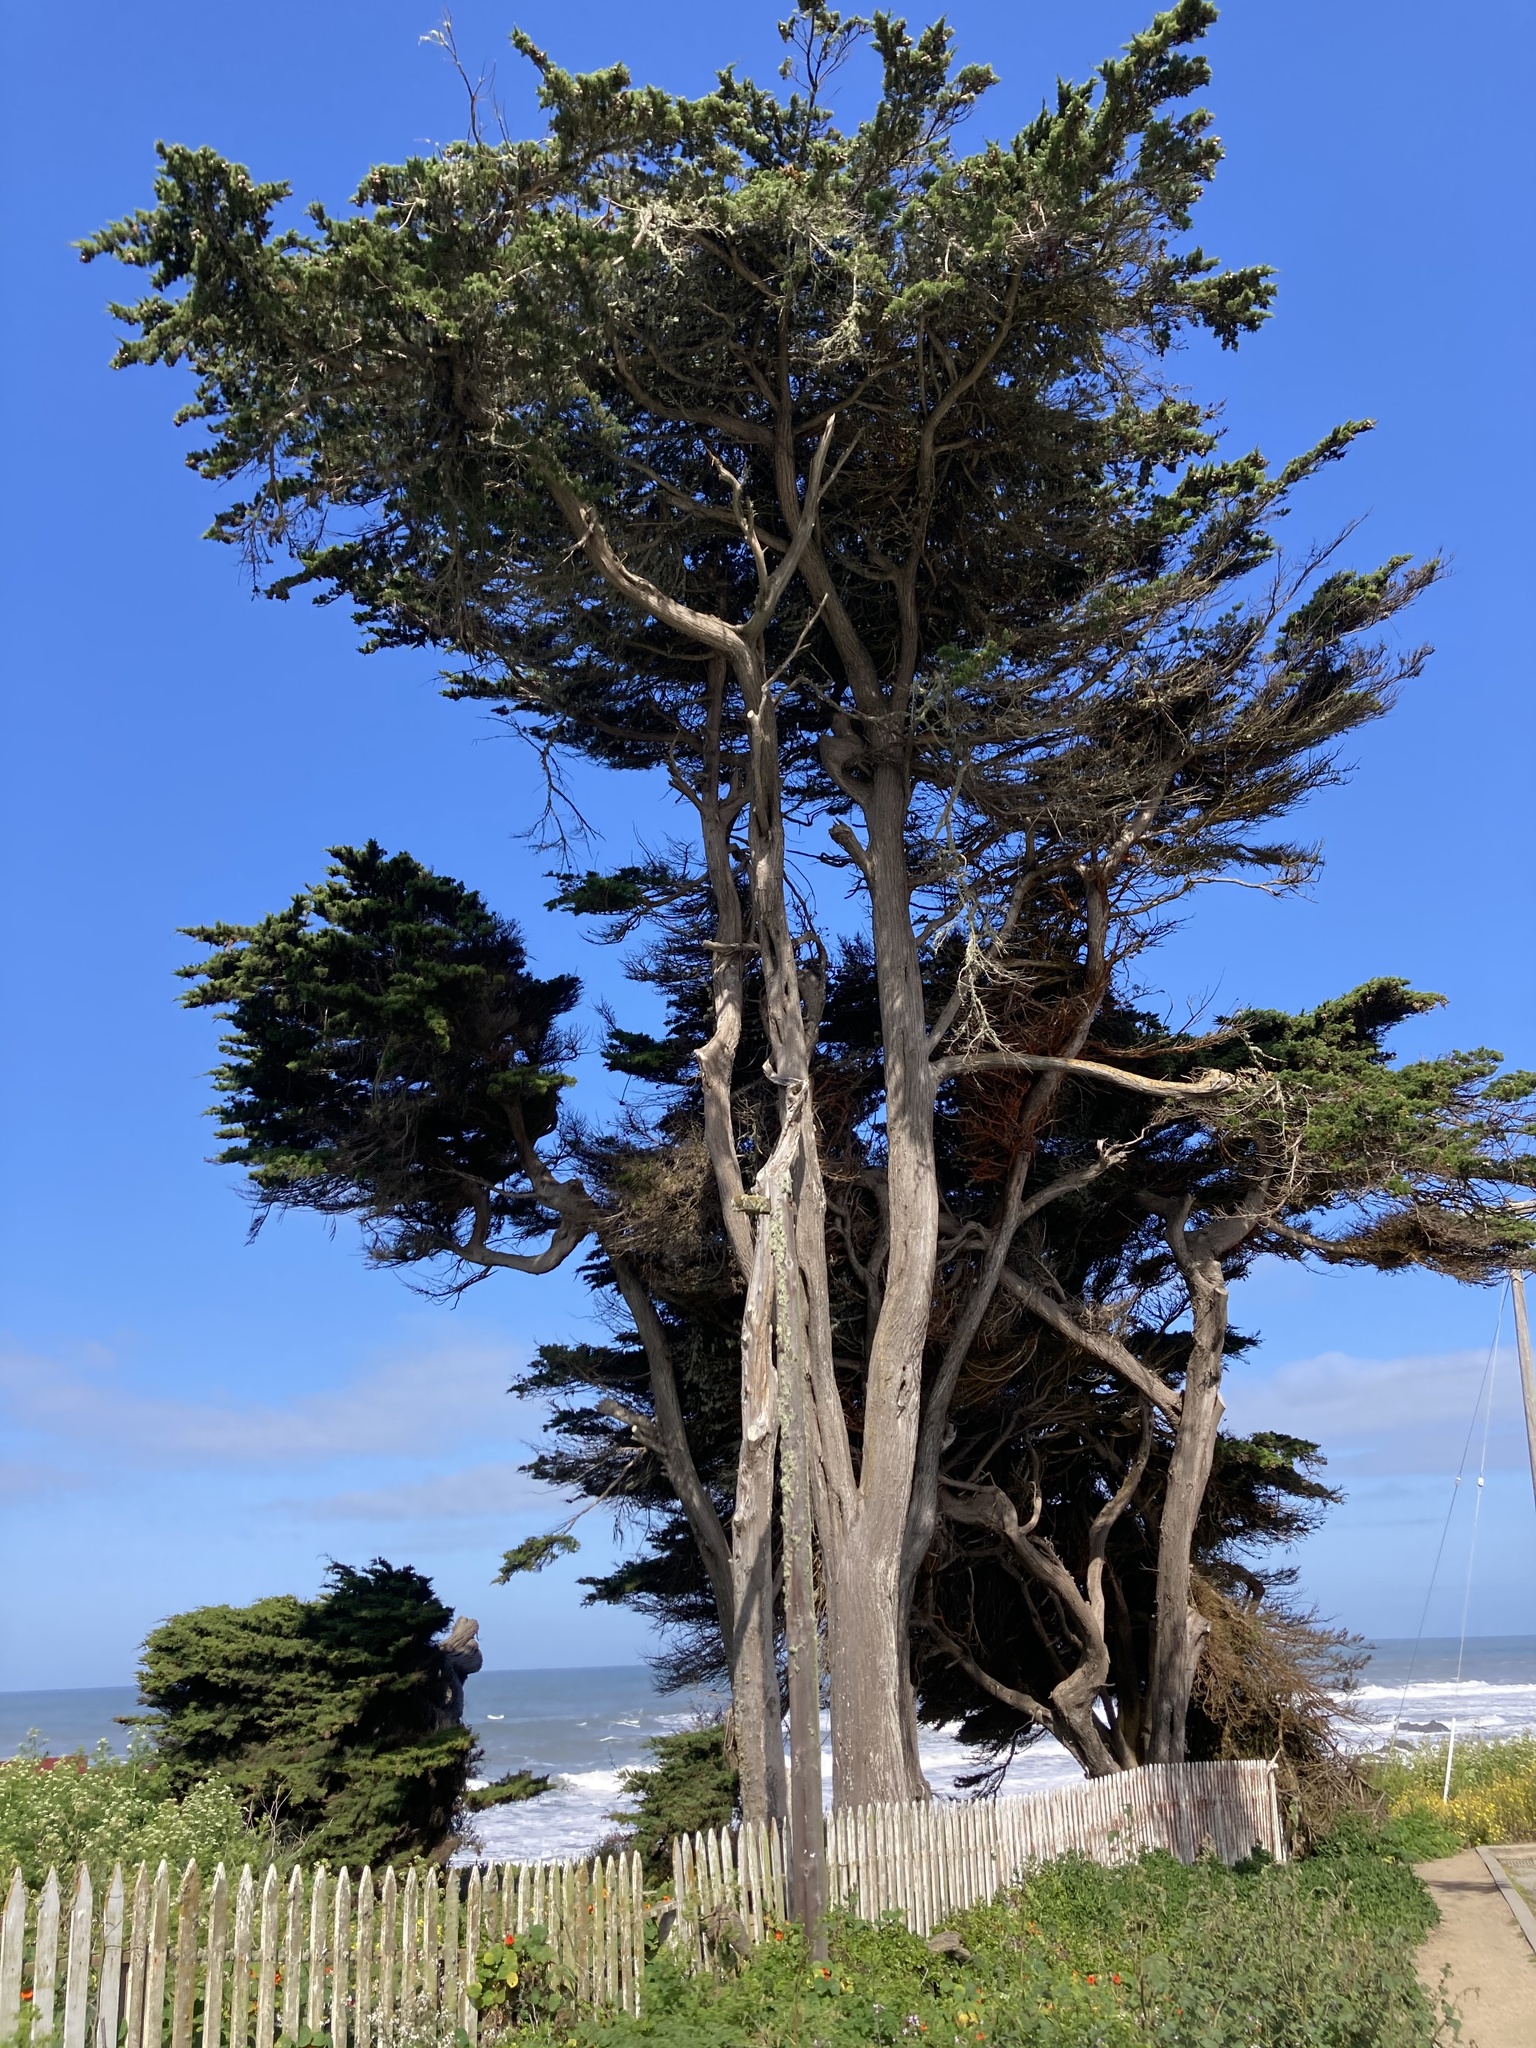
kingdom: Plantae
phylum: Tracheophyta
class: Pinopsida
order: Pinales
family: Cupressaceae
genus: Cupressus
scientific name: Cupressus macrocarpa
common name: Monterey cypress
